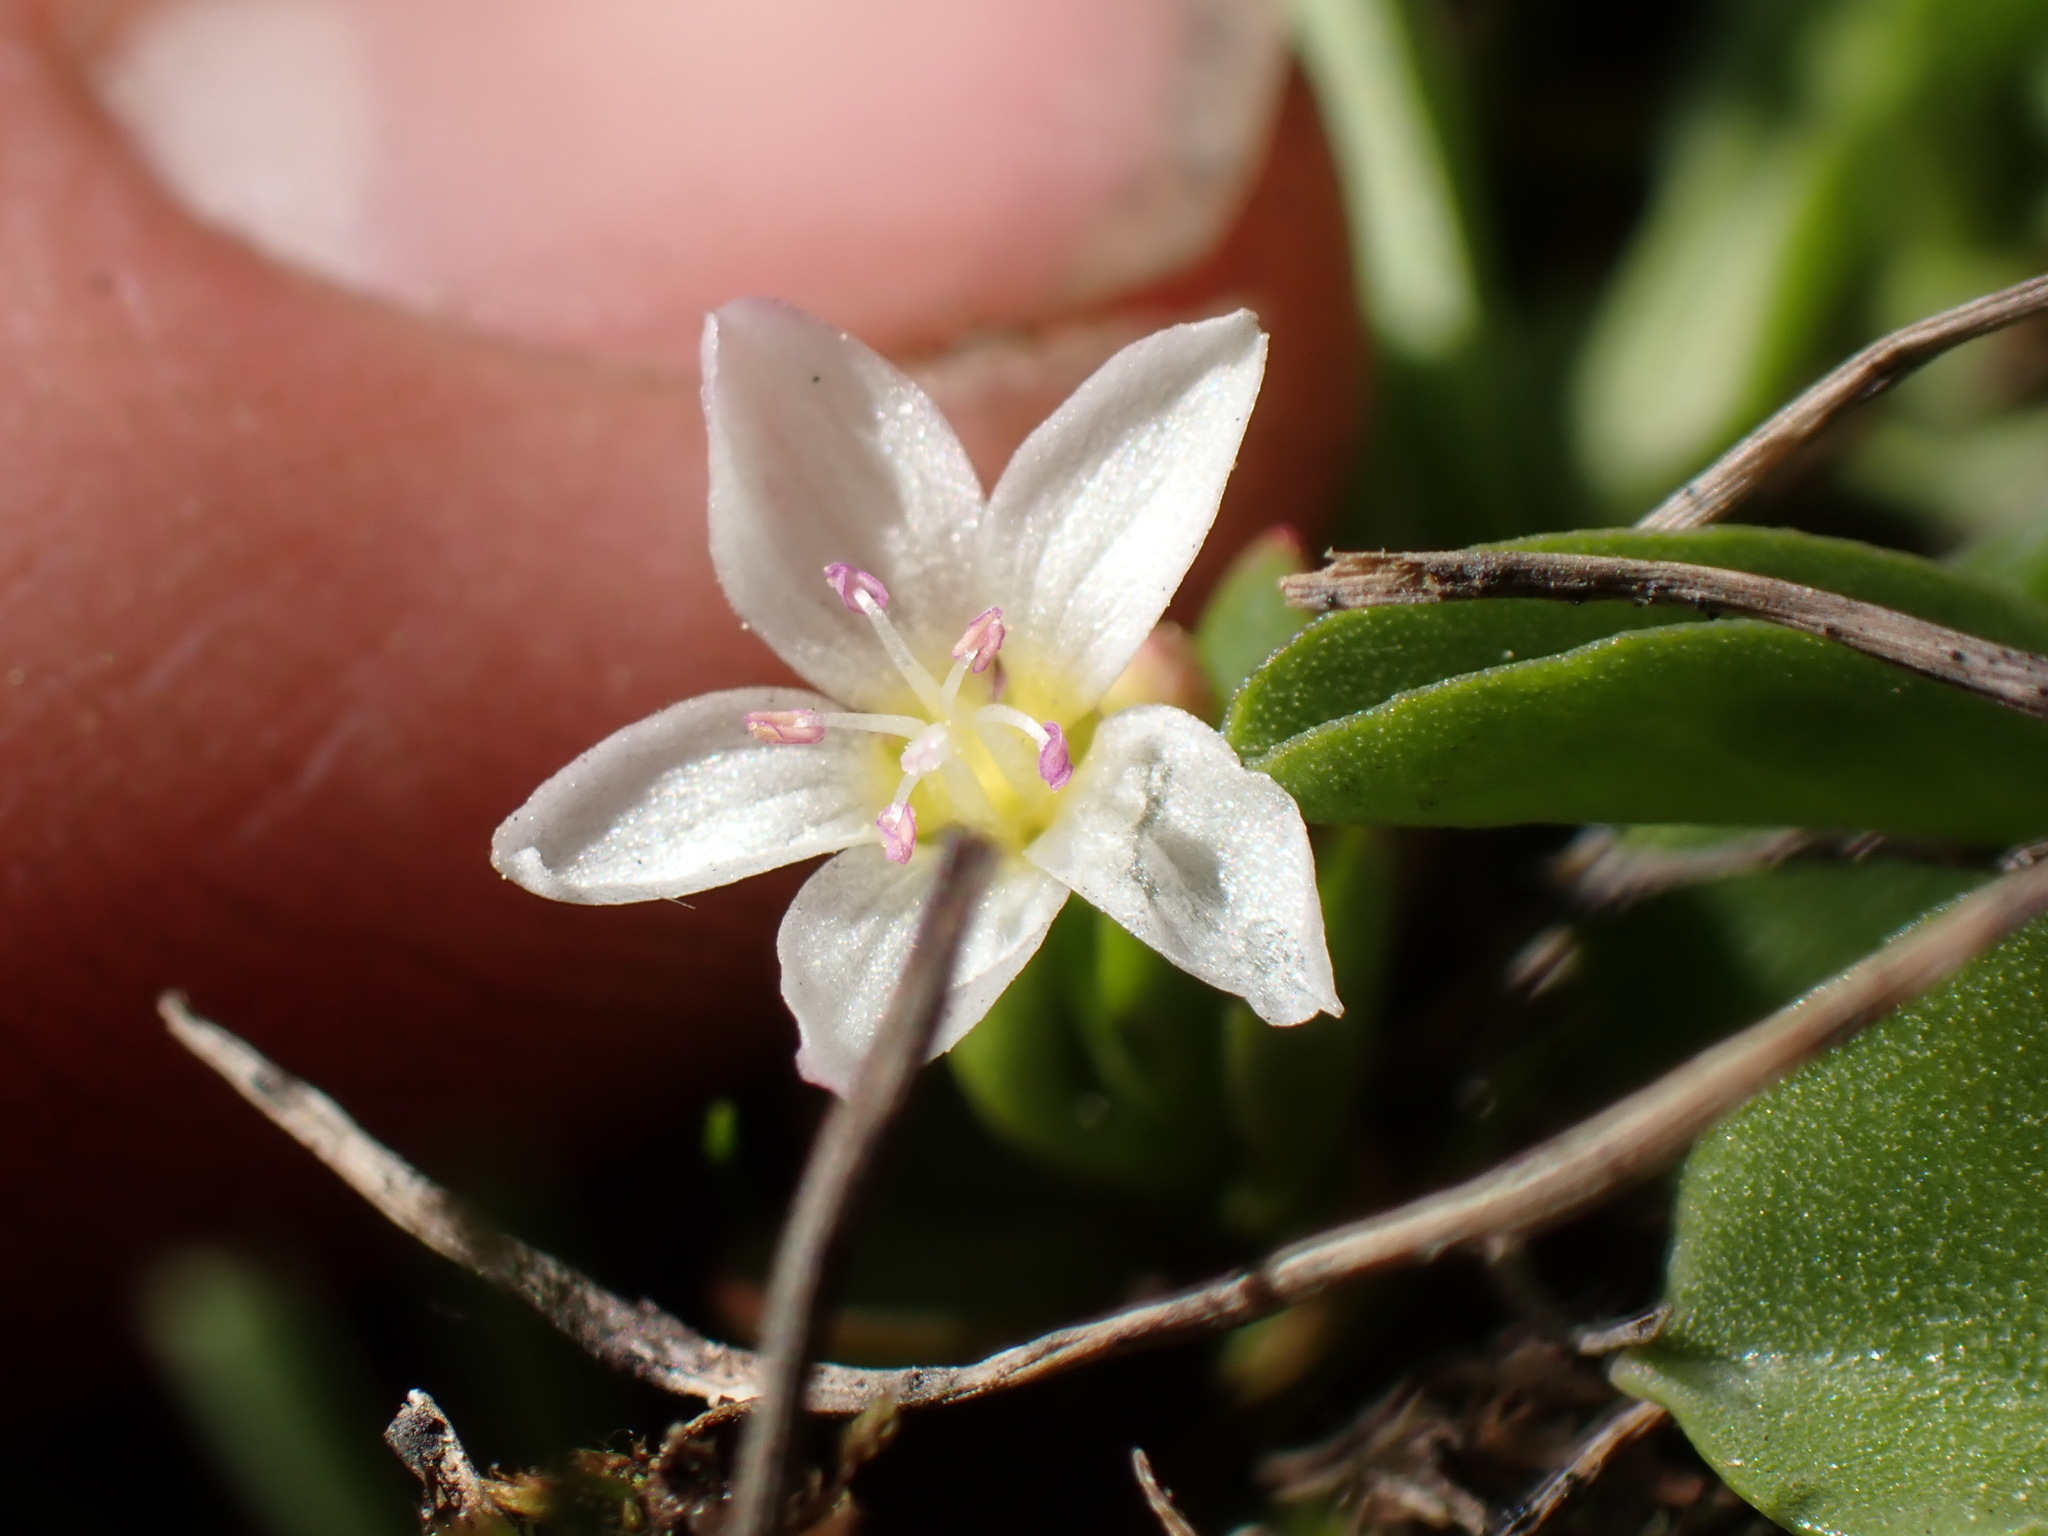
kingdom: Plantae
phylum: Tracheophyta
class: Magnoliopsida
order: Caryophyllales
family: Montiaceae
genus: Montia
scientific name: Montia chamissoi
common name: Chamisso's candyflower
